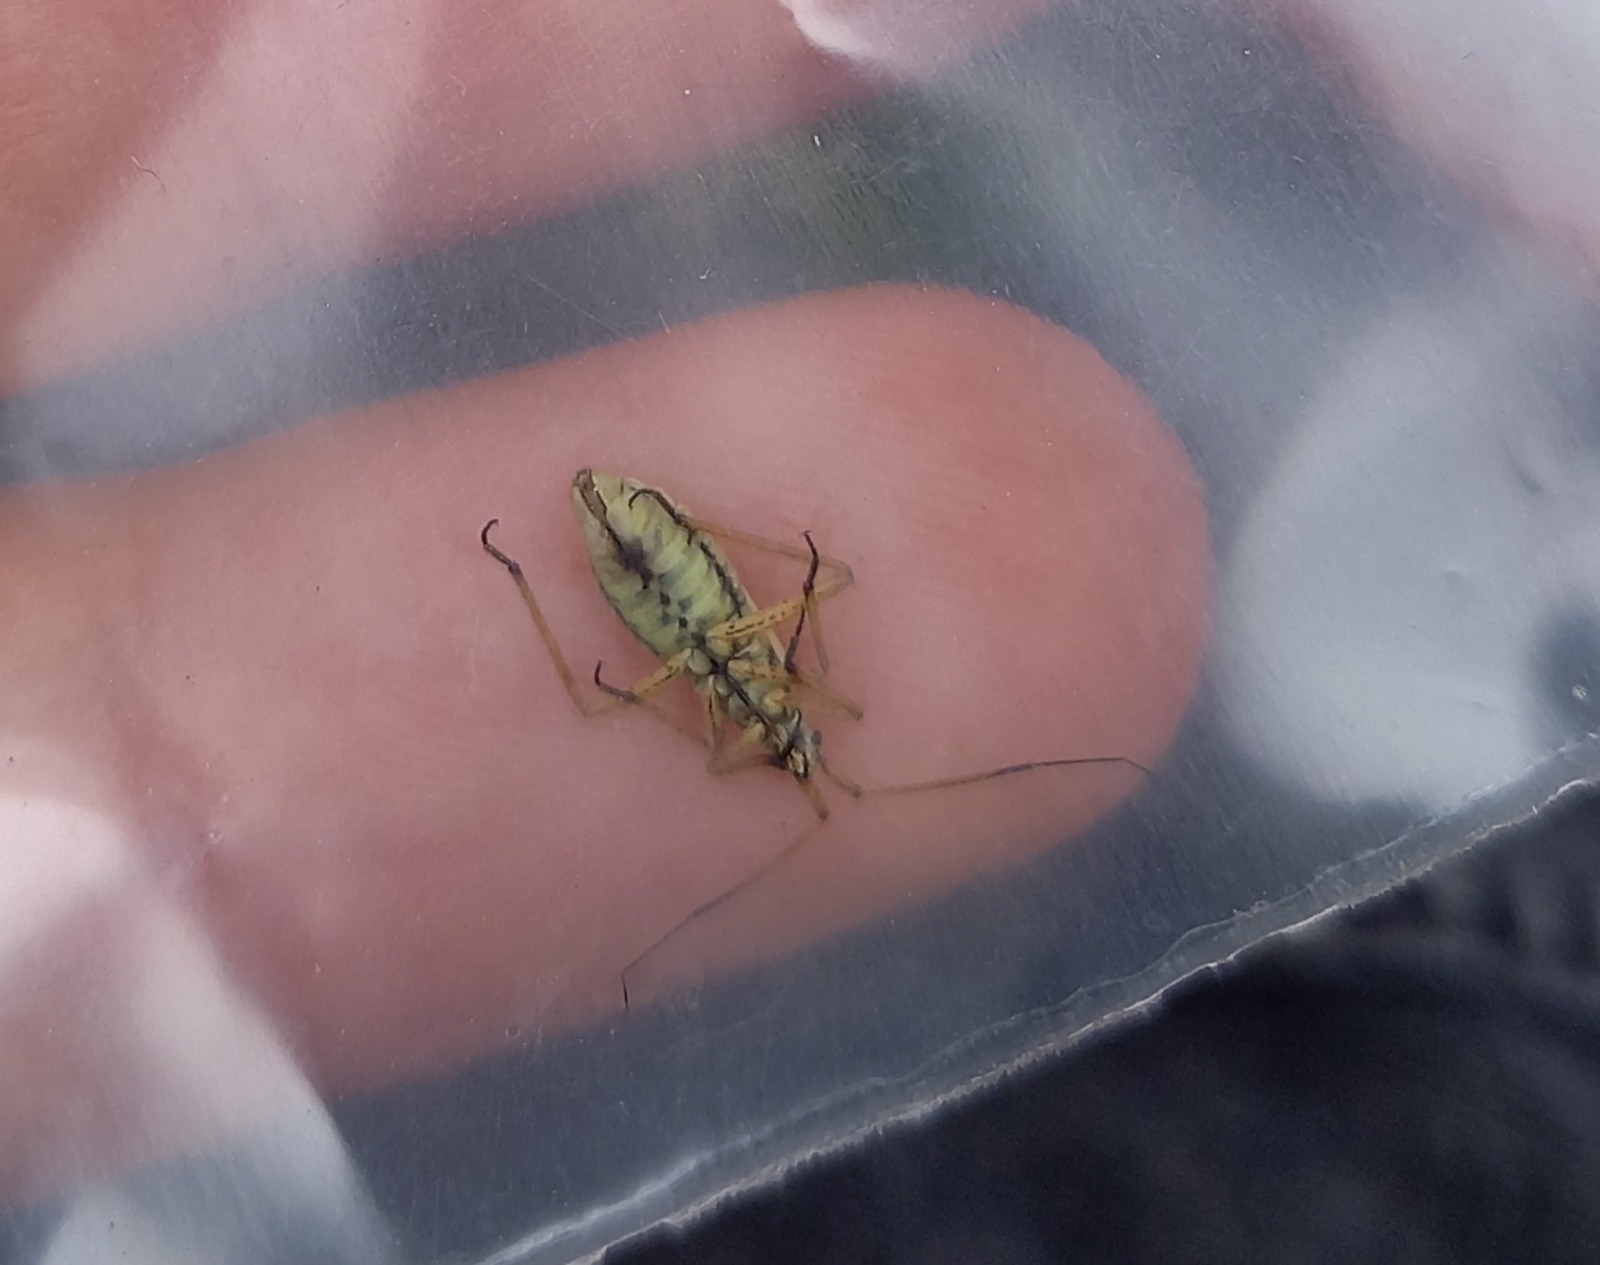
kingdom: Animalia
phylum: Arthropoda
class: Insecta
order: Hemiptera
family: Miridae
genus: Leptopterna
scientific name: Leptopterna dolabrata
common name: Meadow plant bug
